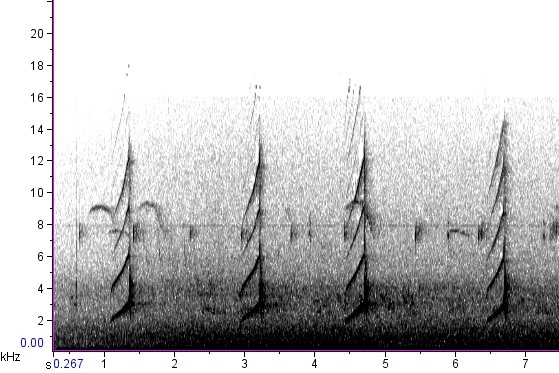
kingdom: Animalia
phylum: Chordata
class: Aves
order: Passeriformes
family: Tyrannidae
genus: Myiarchus
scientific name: Myiarchus crinitus
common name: Great crested flycatcher
